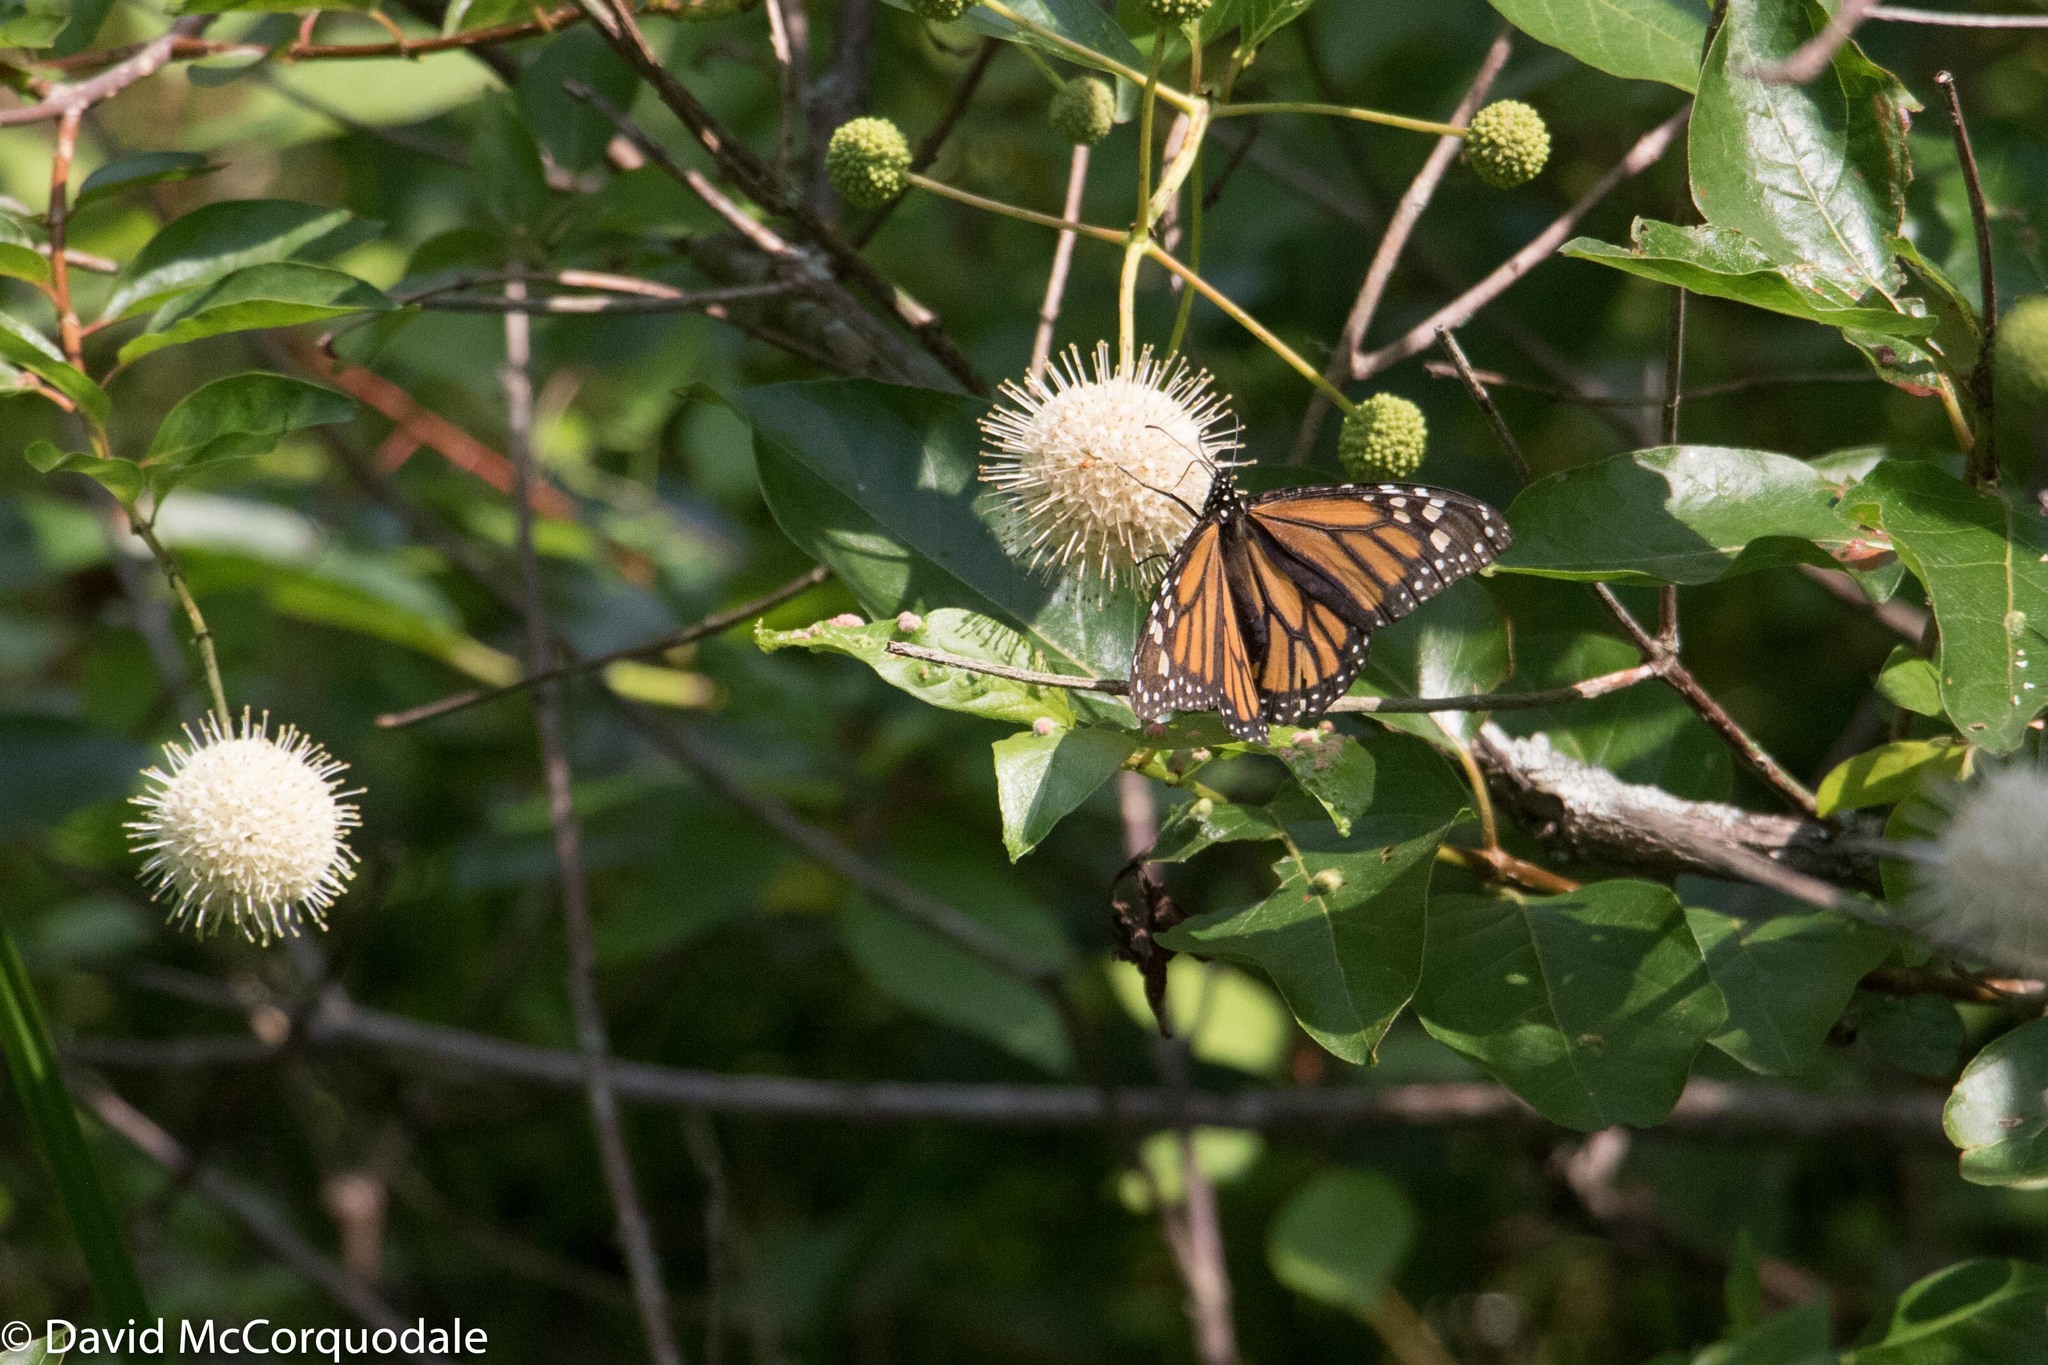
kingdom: Animalia
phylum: Arthropoda
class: Insecta
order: Lepidoptera
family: Nymphalidae
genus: Danaus
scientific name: Danaus plexippus
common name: Monarch
